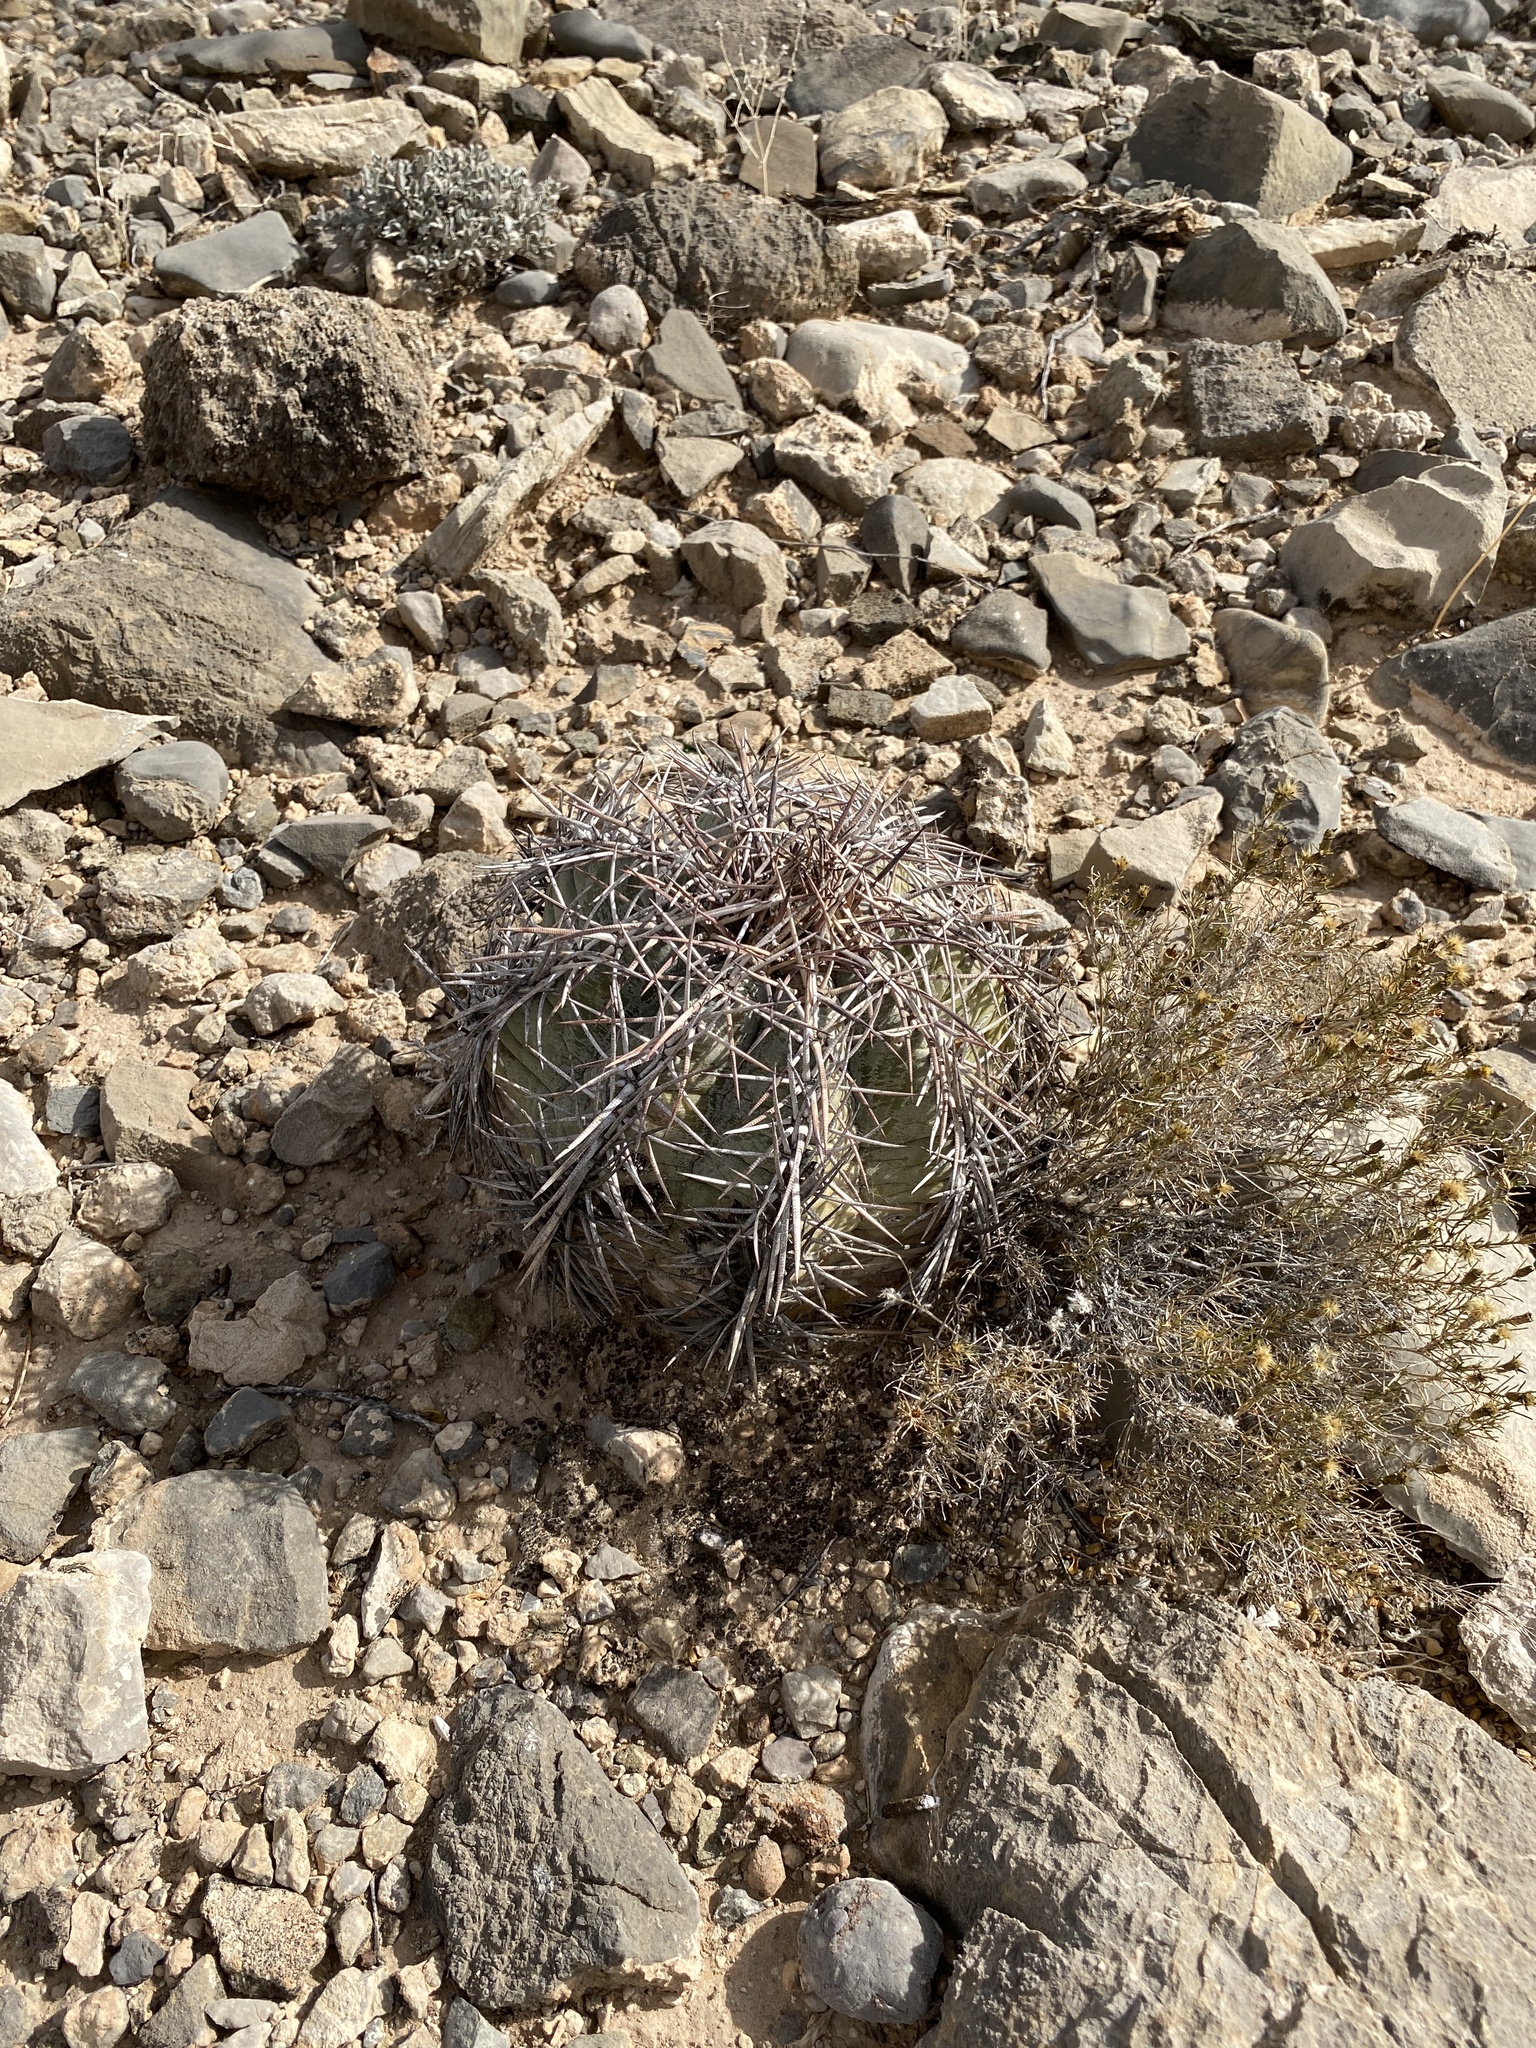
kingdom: Plantae
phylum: Tracheophyta
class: Magnoliopsida
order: Caryophyllales
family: Cactaceae
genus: Echinocactus
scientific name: Echinocactus horizonthalonius
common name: Devilshead
